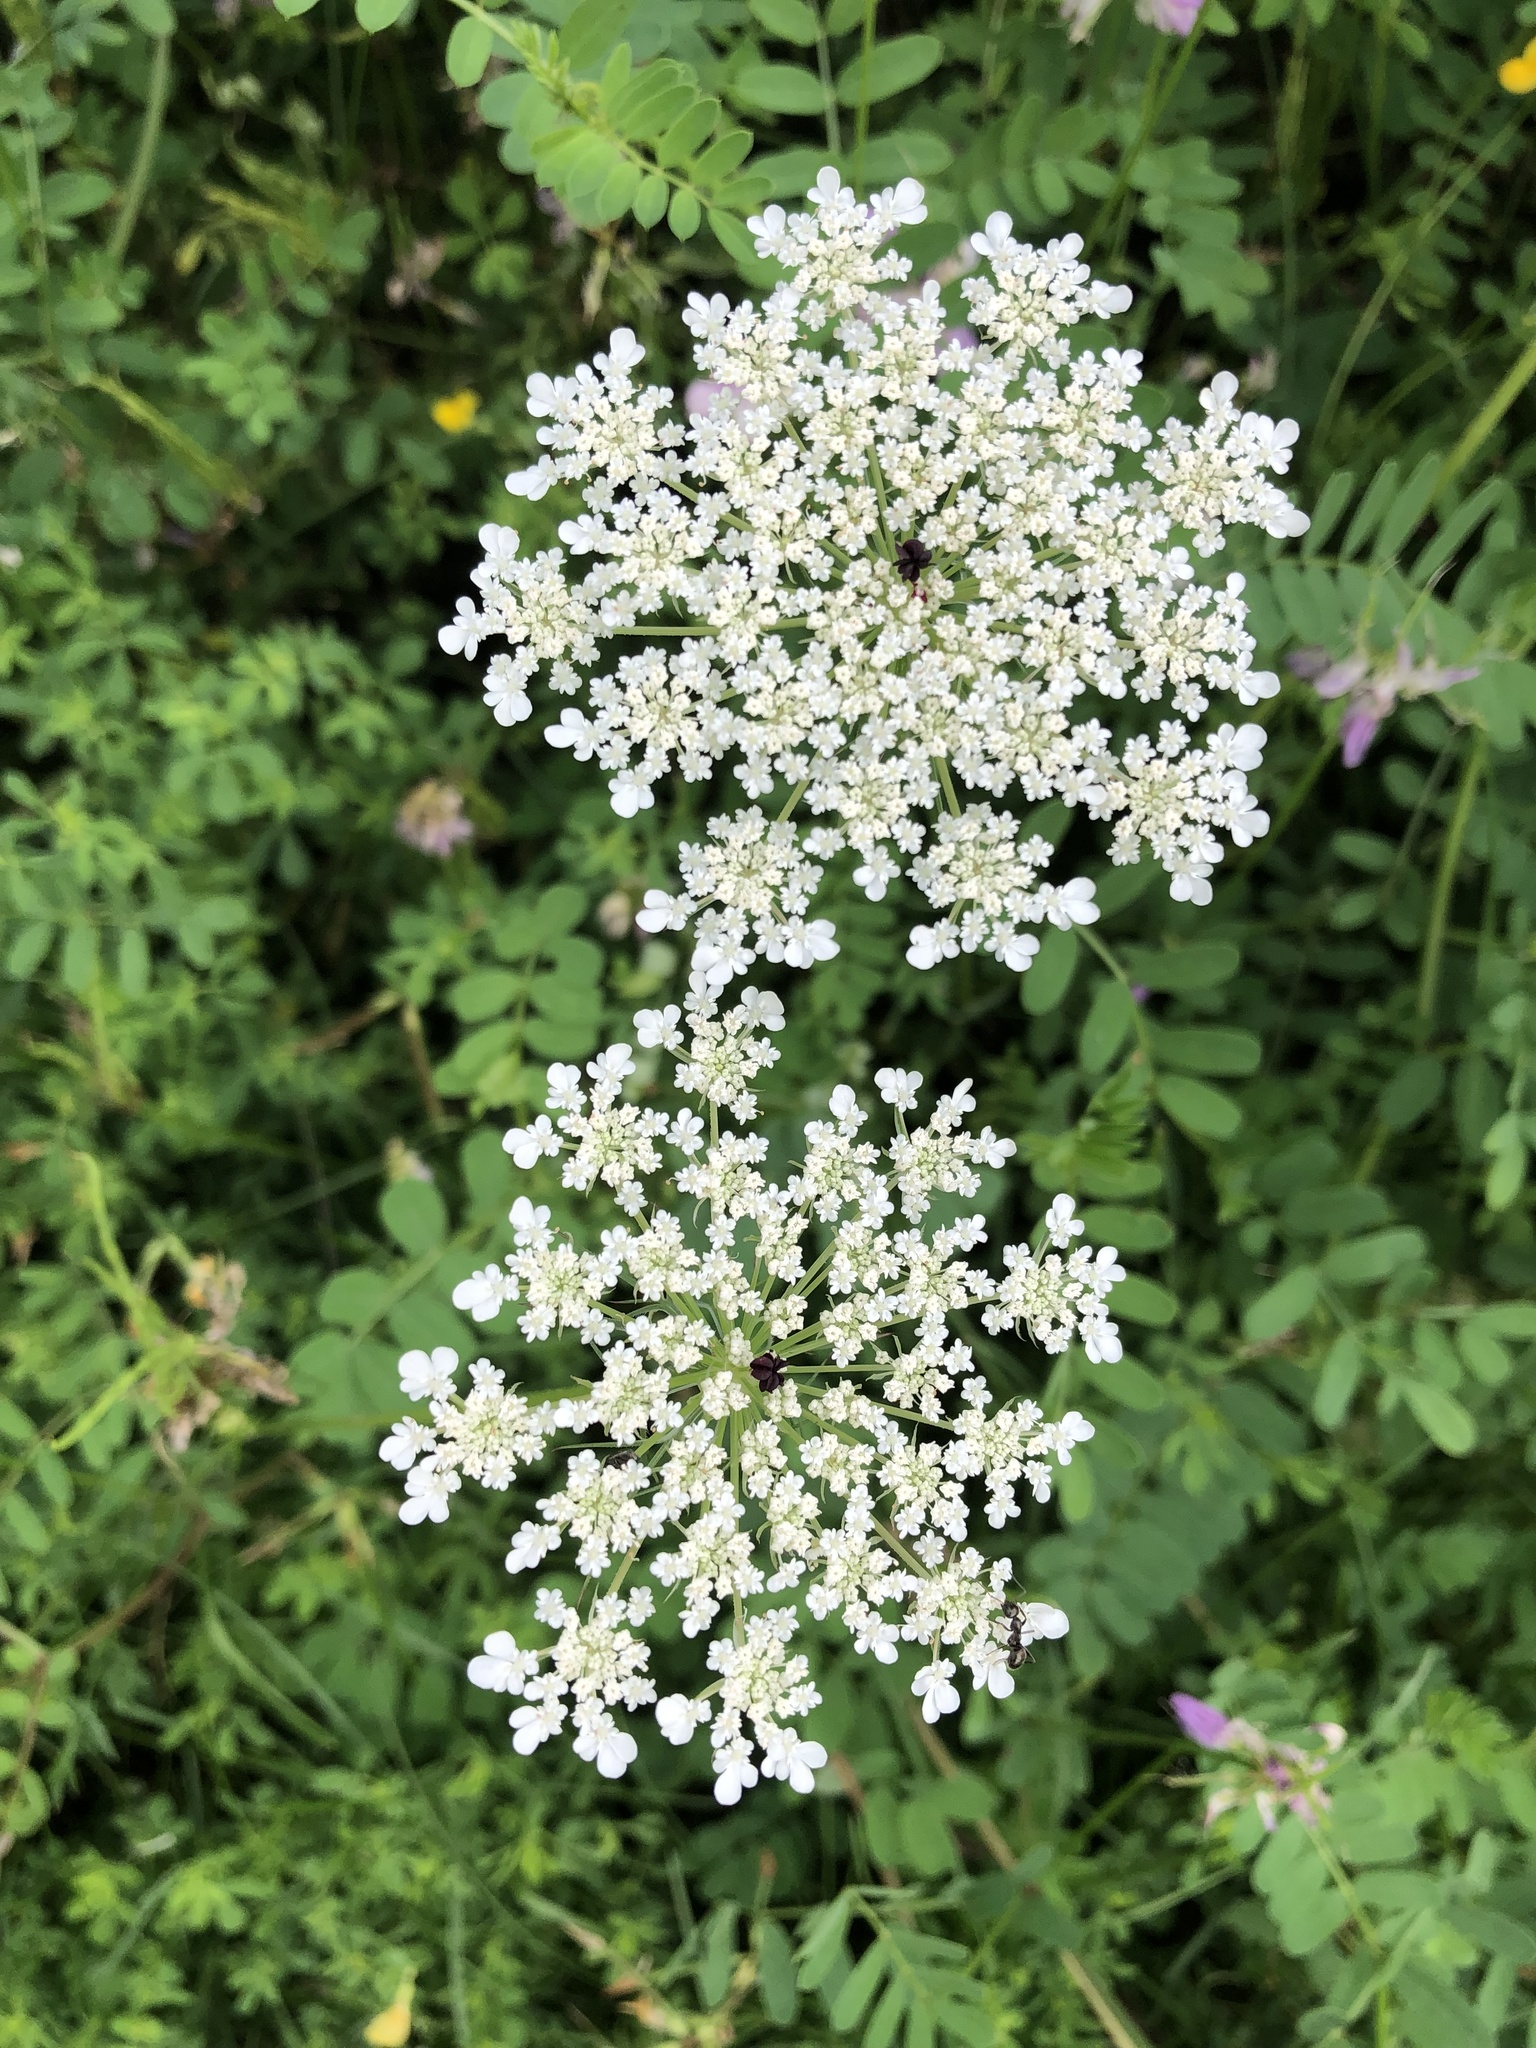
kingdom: Plantae
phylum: Tracheophyta
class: Magnoliopsida
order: Apiales
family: Apiaceae
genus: Daucus
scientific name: Daucus carota
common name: Wild carrot
